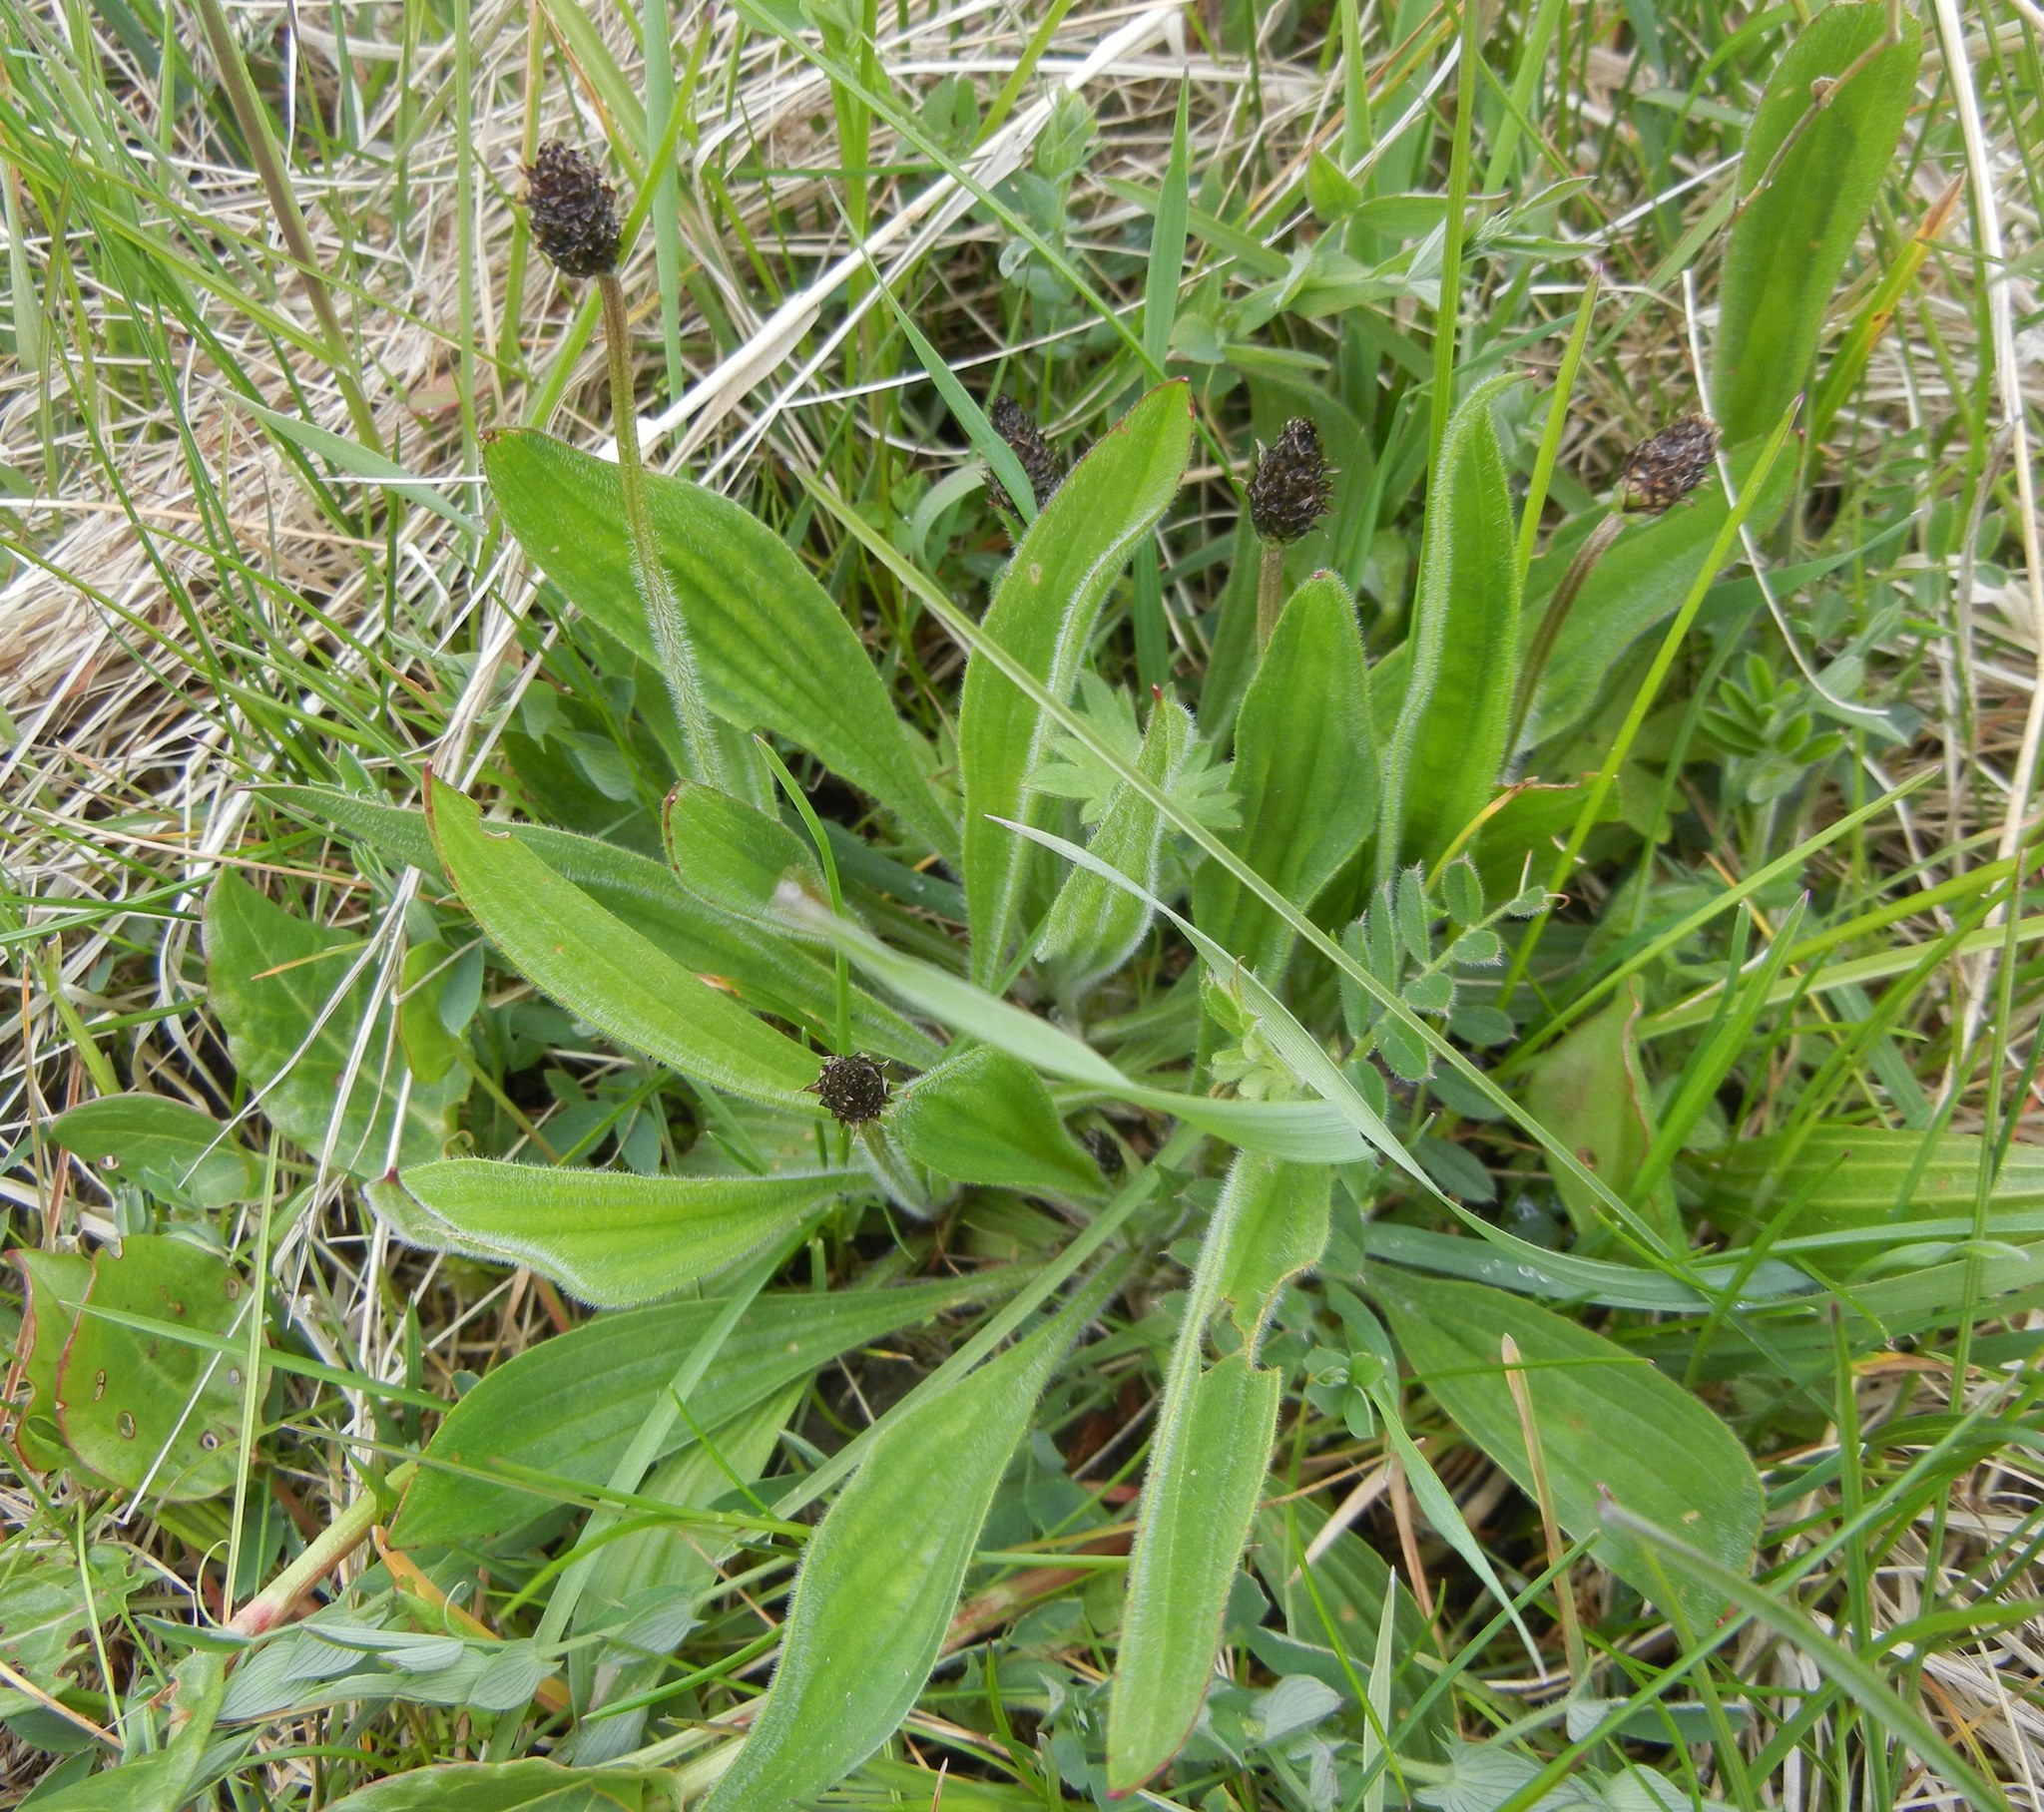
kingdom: Plantae
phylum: Tracheophyta
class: Magnoliopsida
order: Lamiales
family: Plantaginaceae
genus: Plantago
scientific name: Plantago lanceolata
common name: Ribwort plantain
